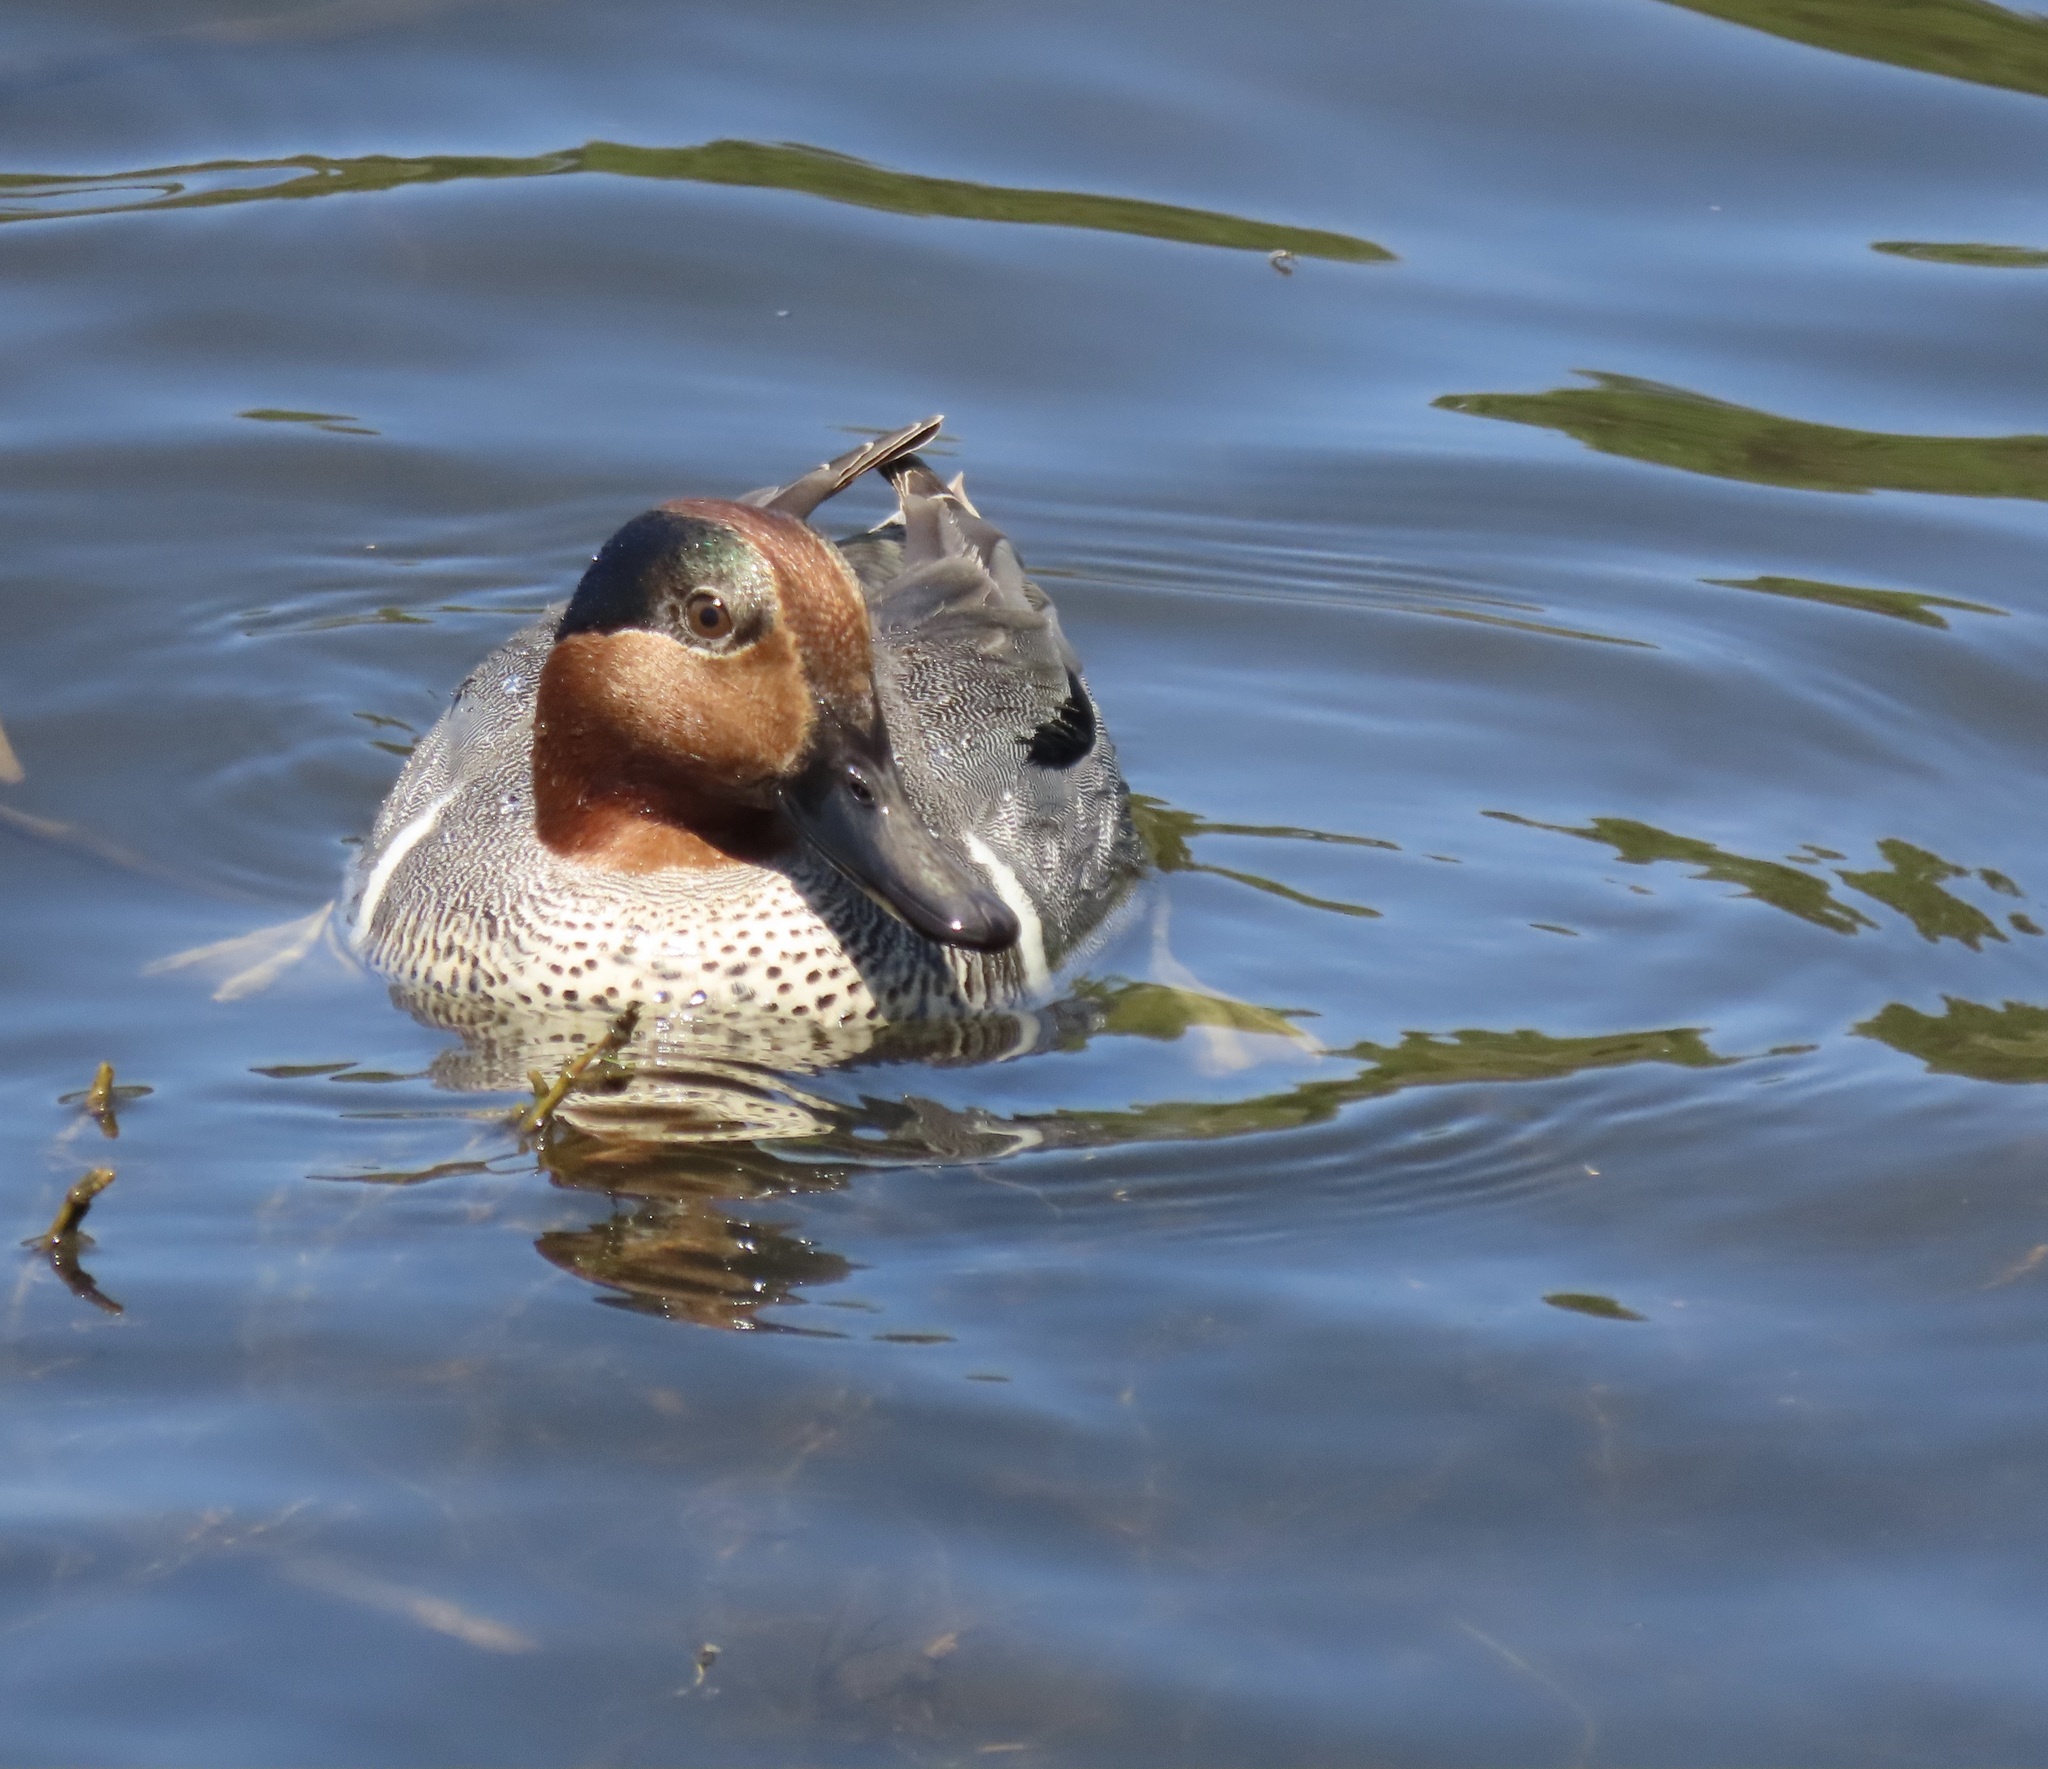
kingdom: Animalia
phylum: Chordata
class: Aves
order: Anseriformes
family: Anatidae
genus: Anas
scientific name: Anas crecca
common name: Eurasian teal
